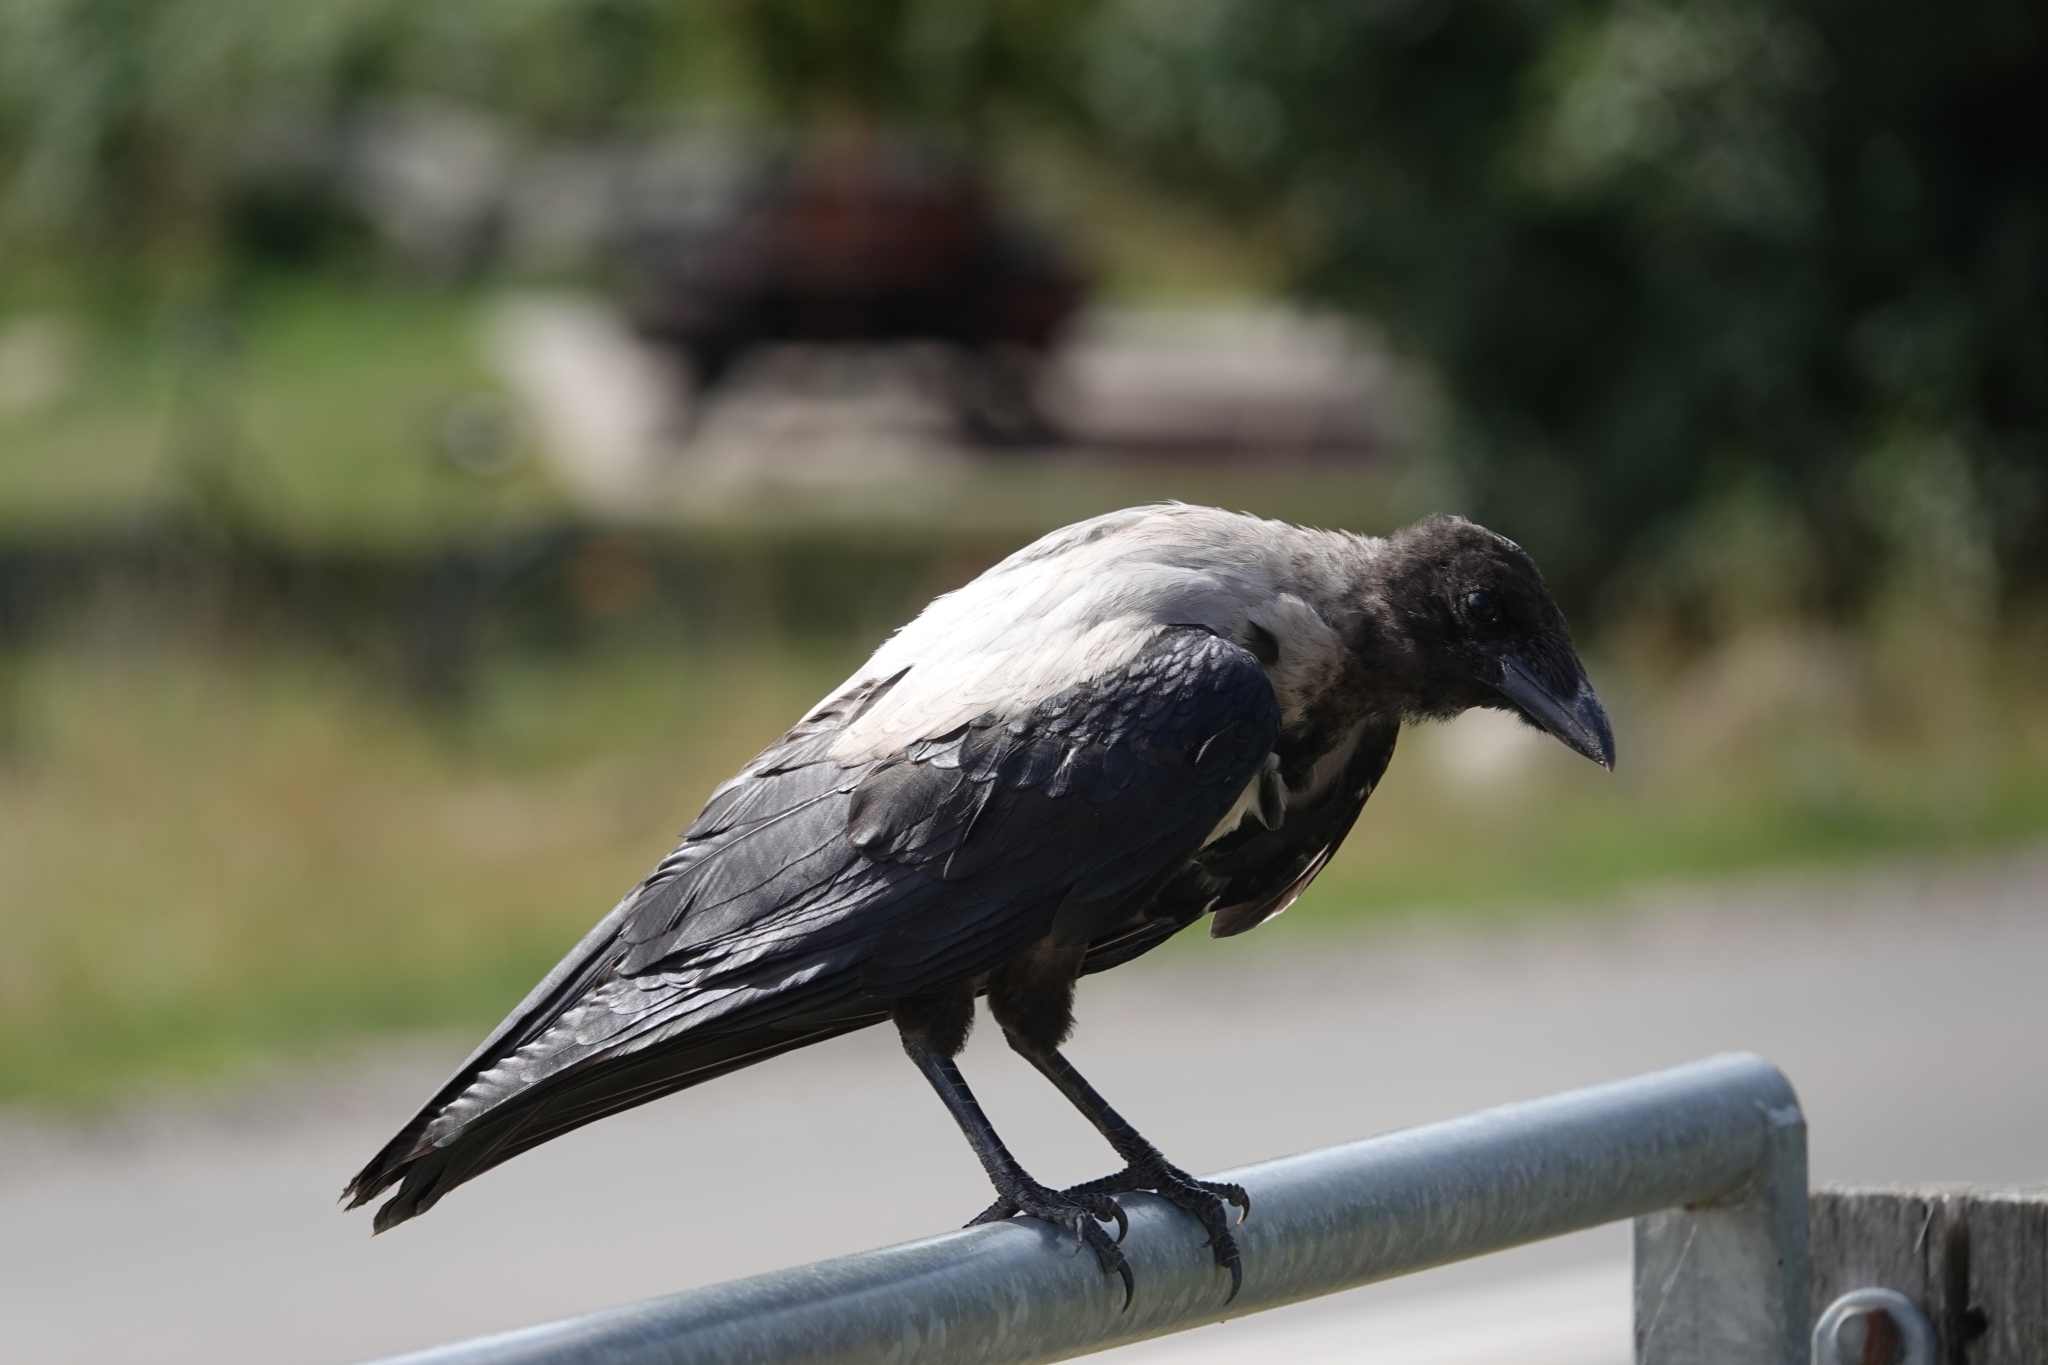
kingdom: Animalia
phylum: Chordata
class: Aves
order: Passeriformes
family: Corvidae
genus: Corvus
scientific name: Corvus cornix
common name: Hooded crow
